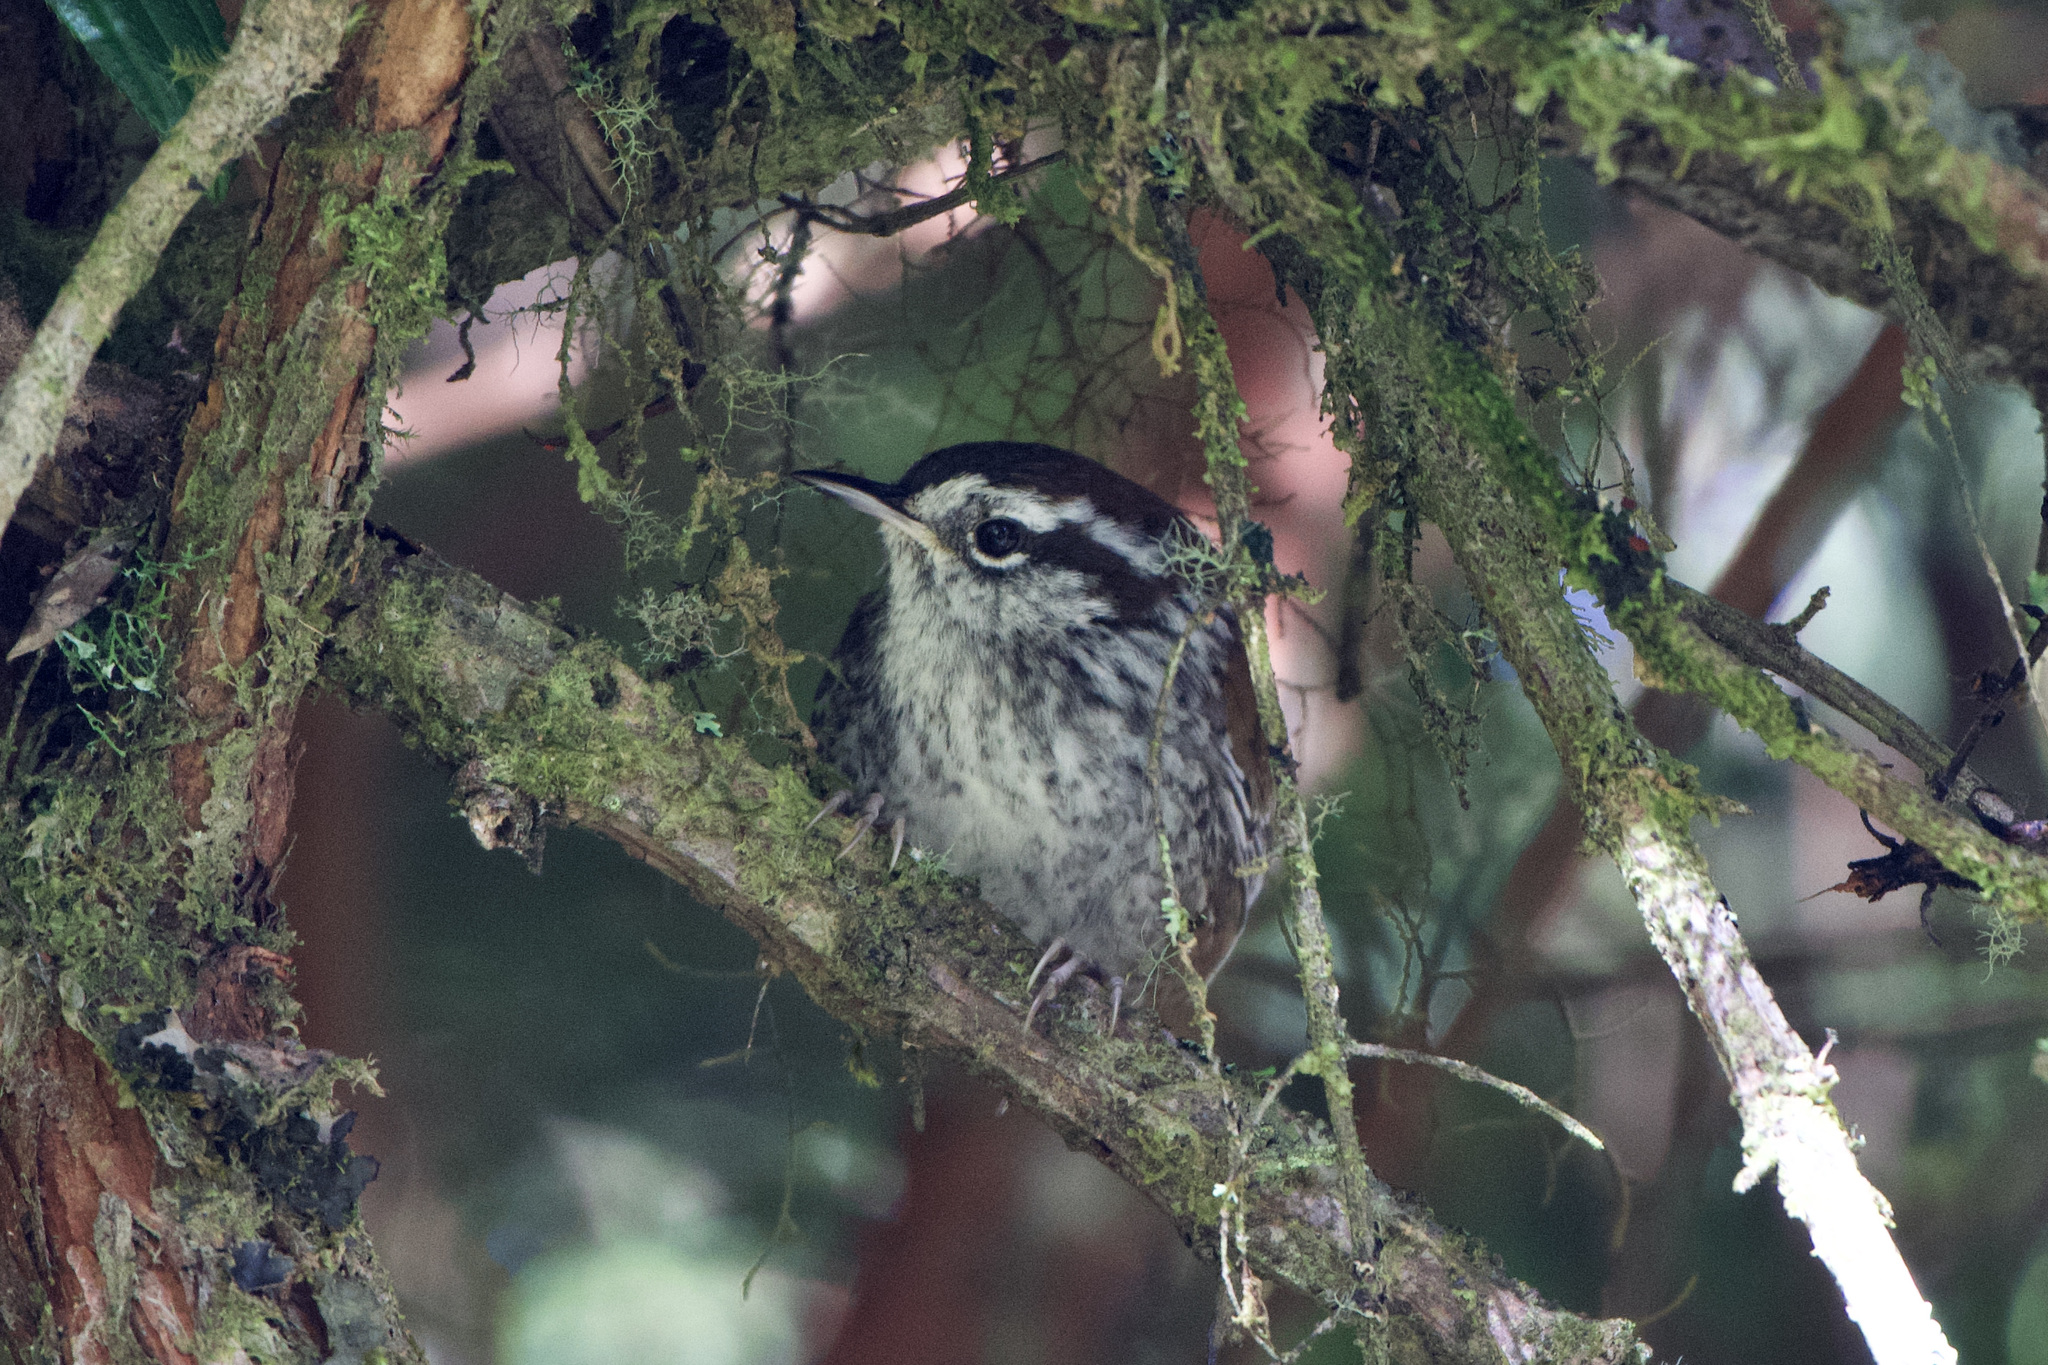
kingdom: Animalia
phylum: Chordata
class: Aves
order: Passeriformes
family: Troglodytidae
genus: Thryorchilus
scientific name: Thryorchilus browni
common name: Timberline wren
